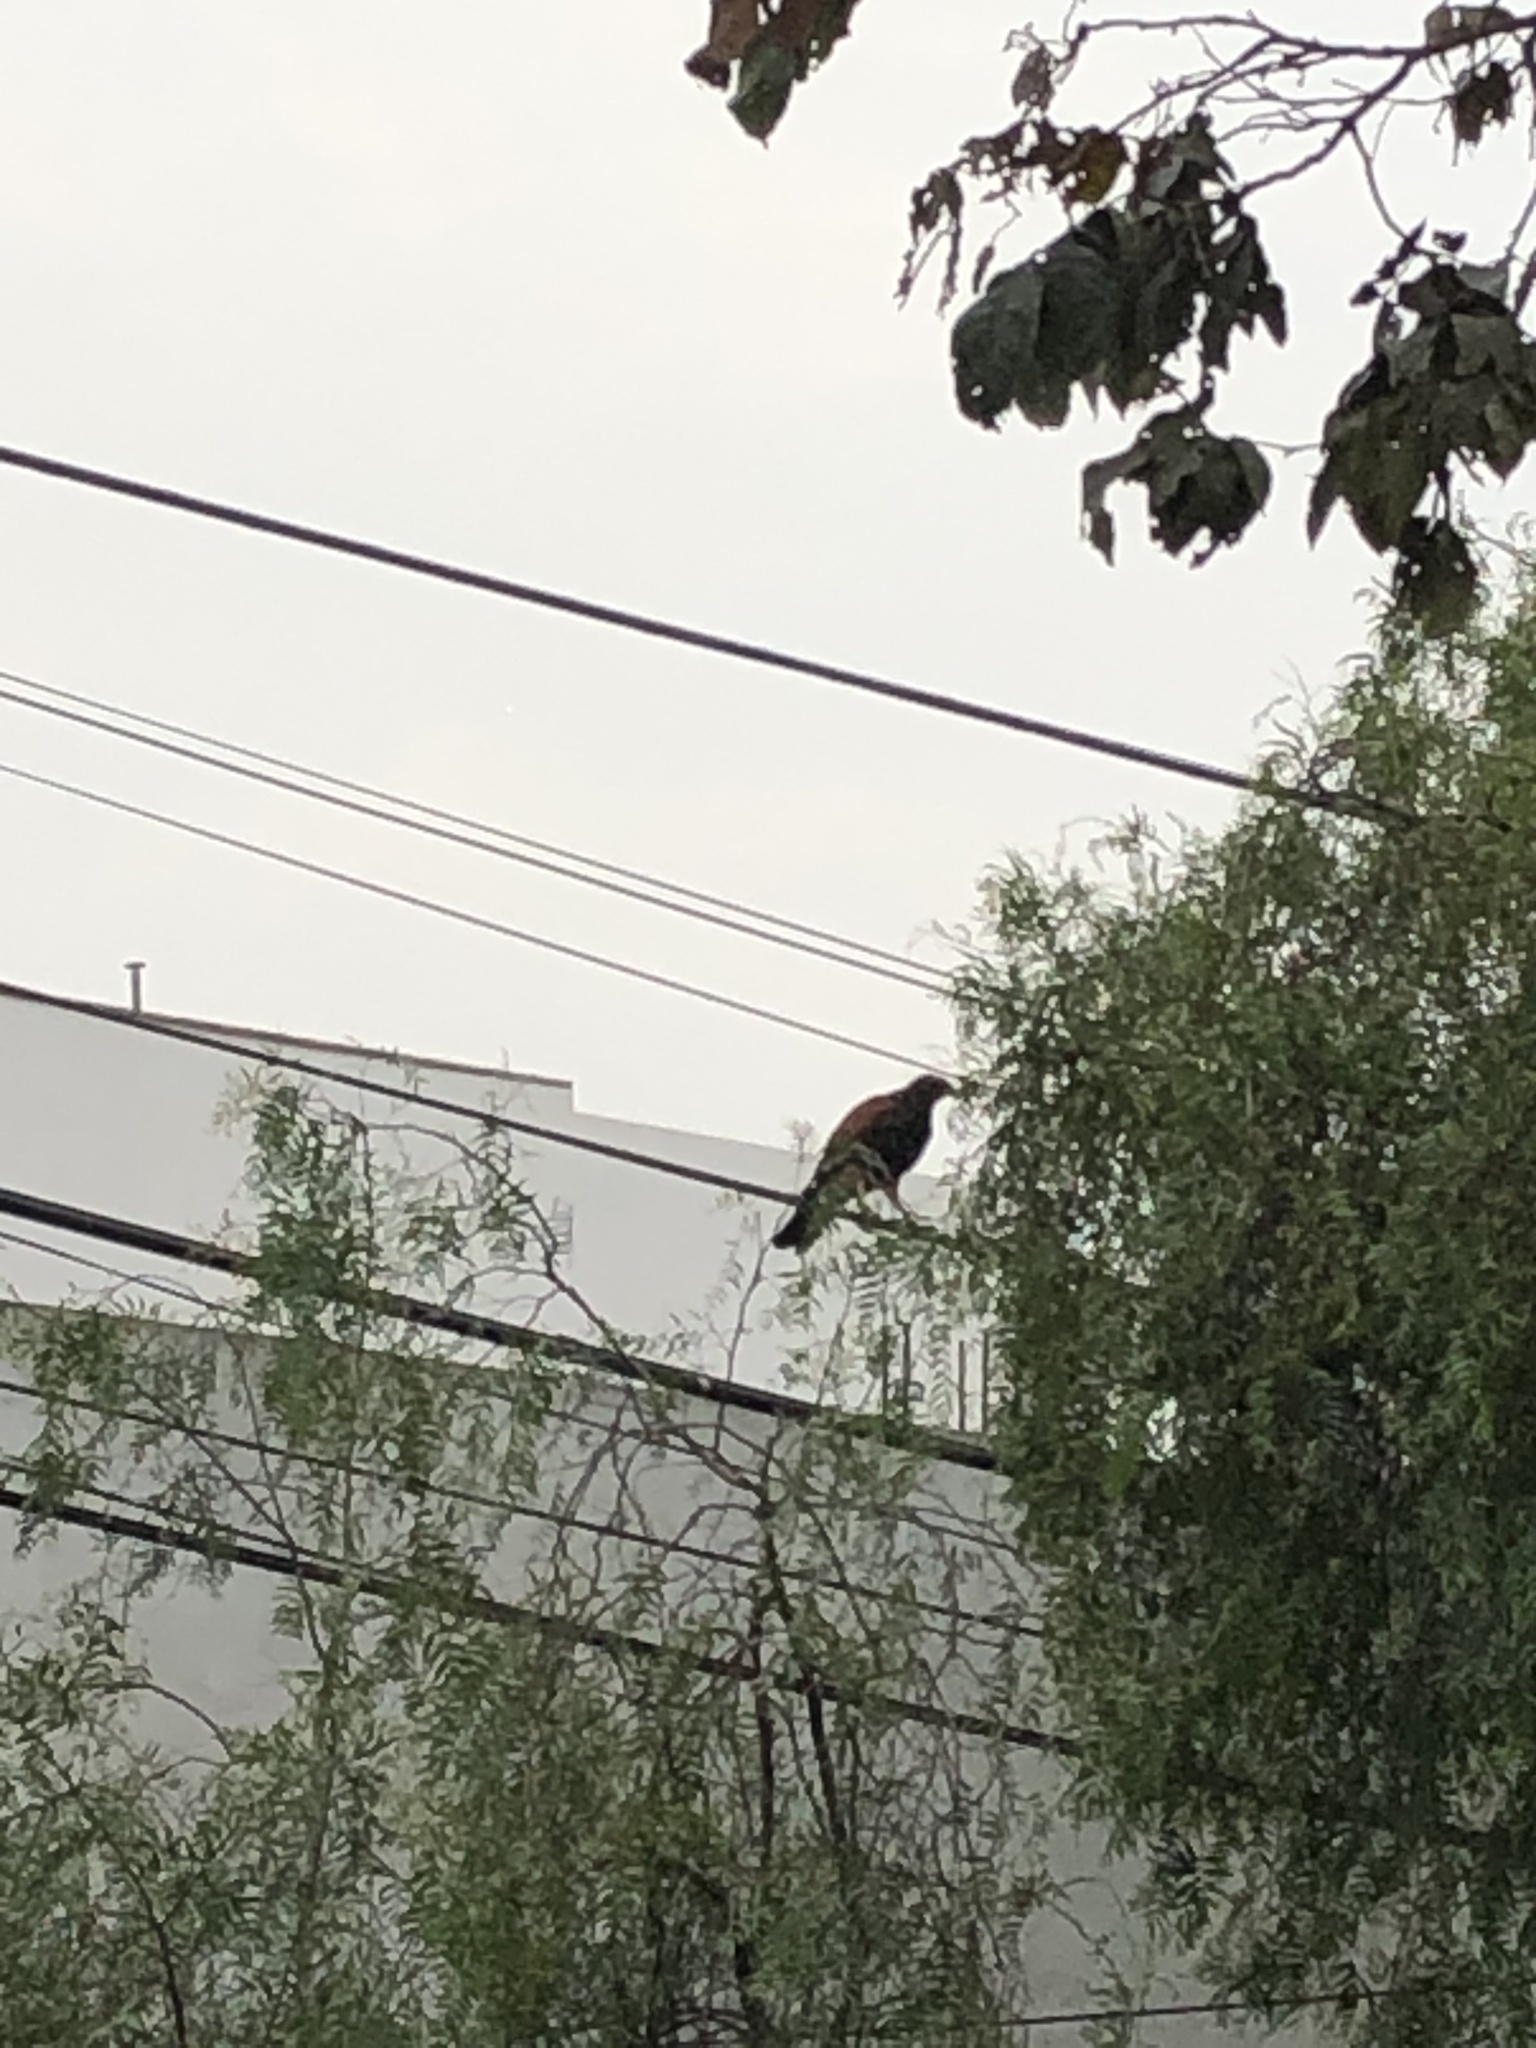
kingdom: Animalia
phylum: Chordata
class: Aves
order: Accipitriformes
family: Accipitridae
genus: Parabuteo
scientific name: Parabuteo unicinctus
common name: Harris's hawk
